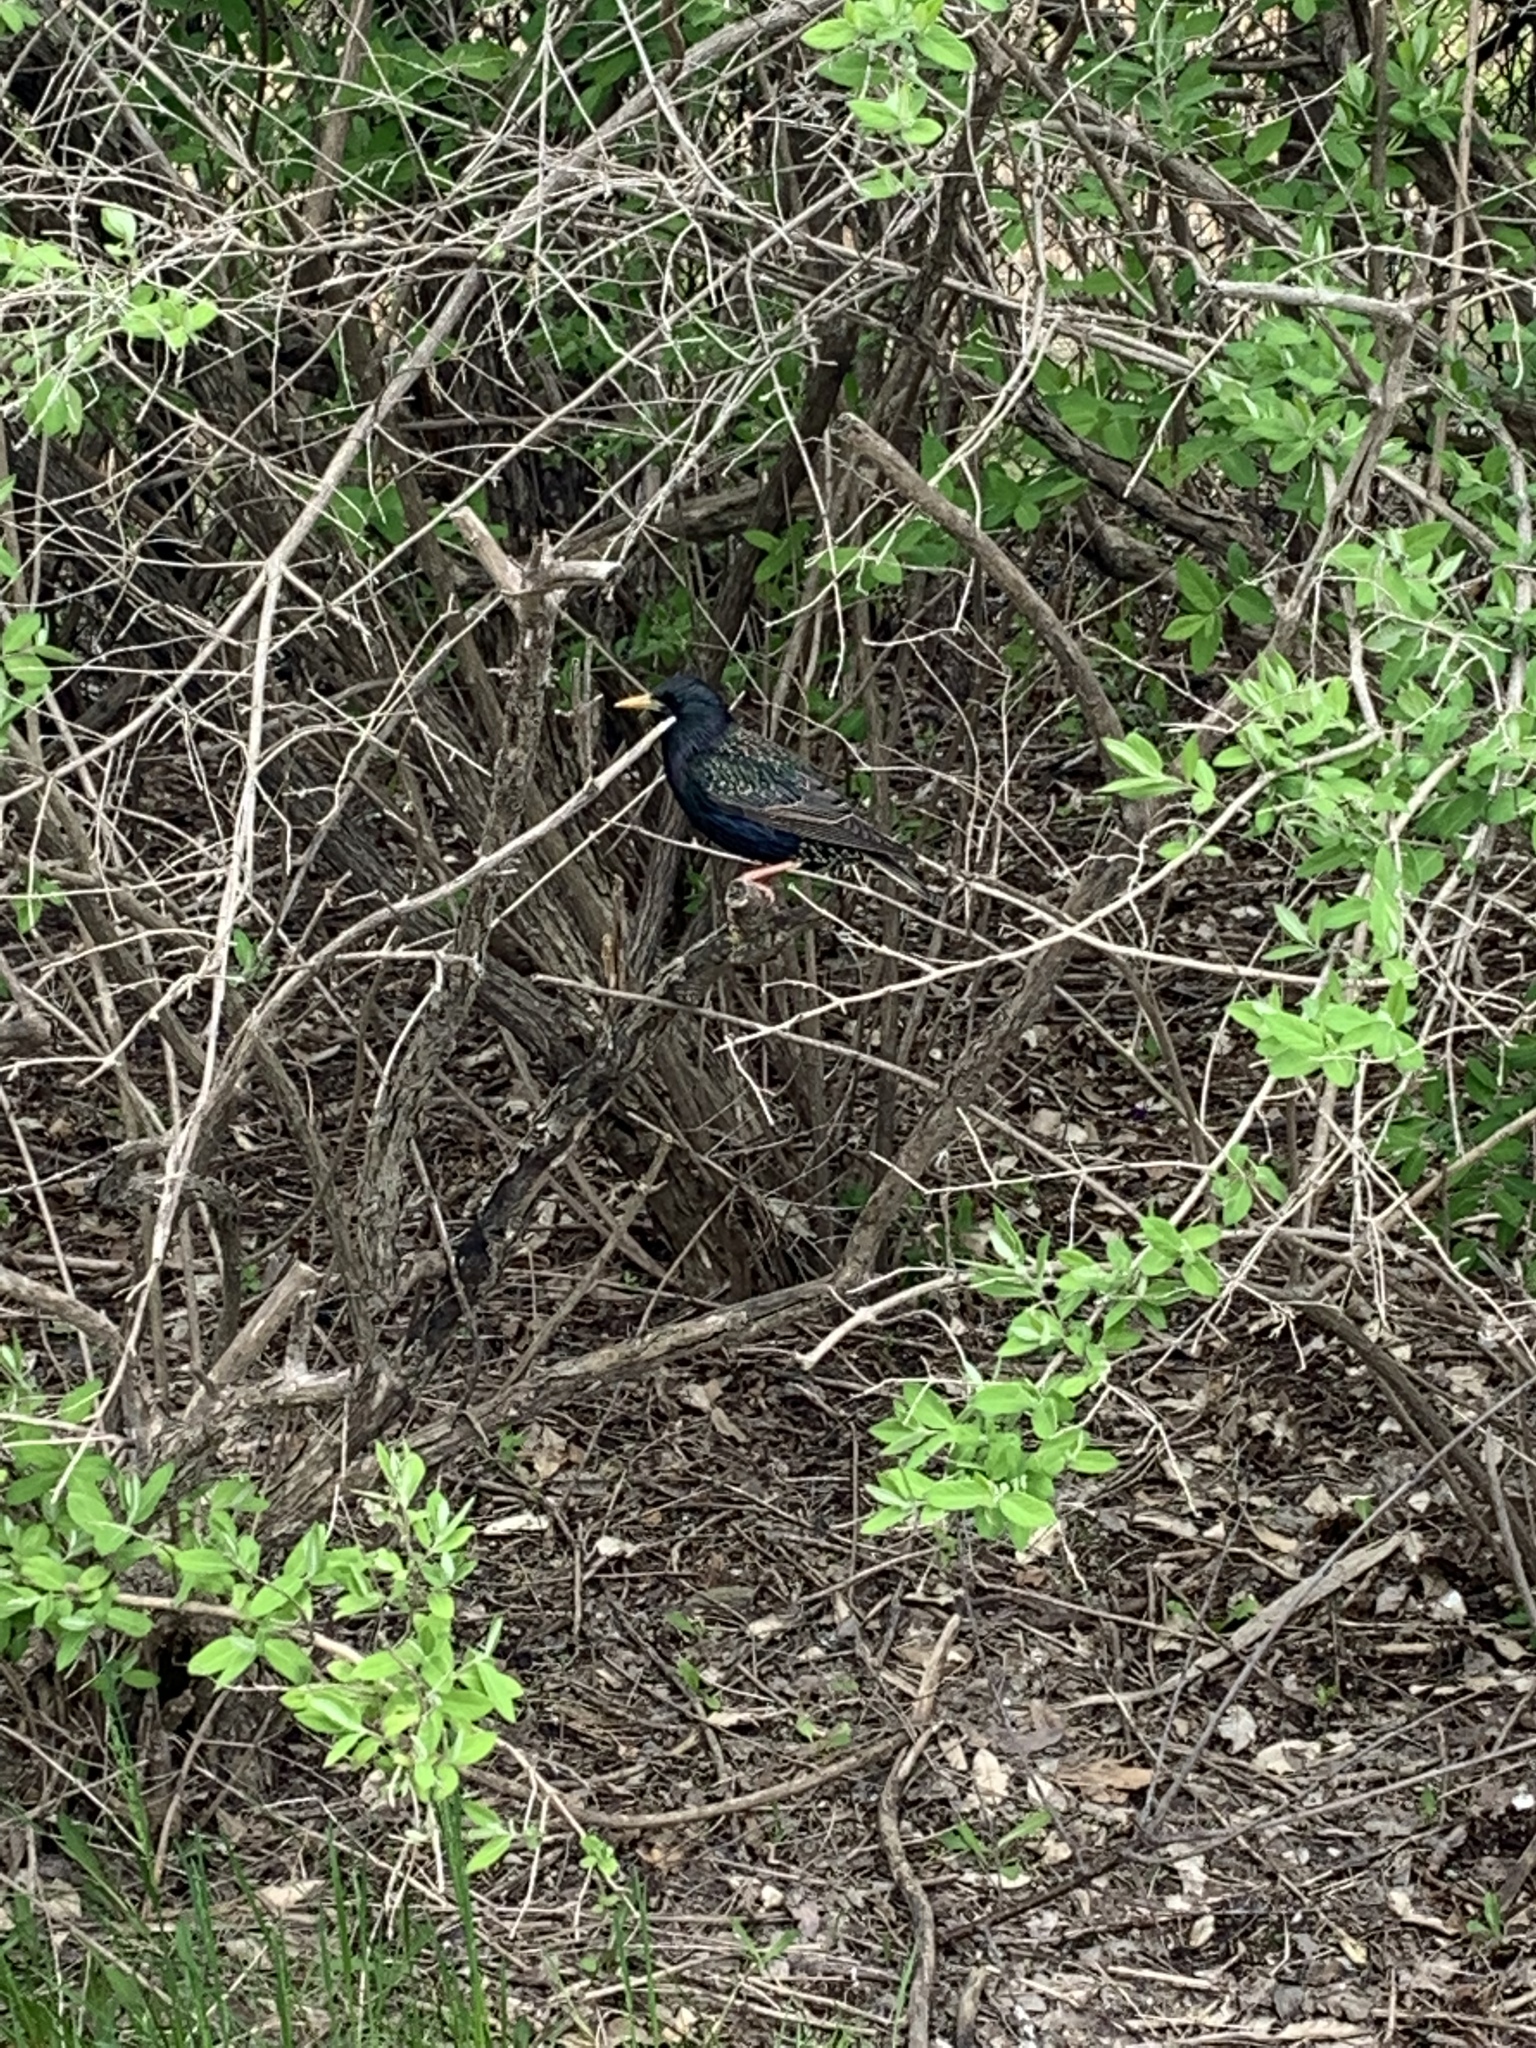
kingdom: Animalia
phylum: Chordata
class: Aves
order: Passeriformes
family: Sturnidae
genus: Sturnus
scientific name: Sturnus vulgaris
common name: Common starling
